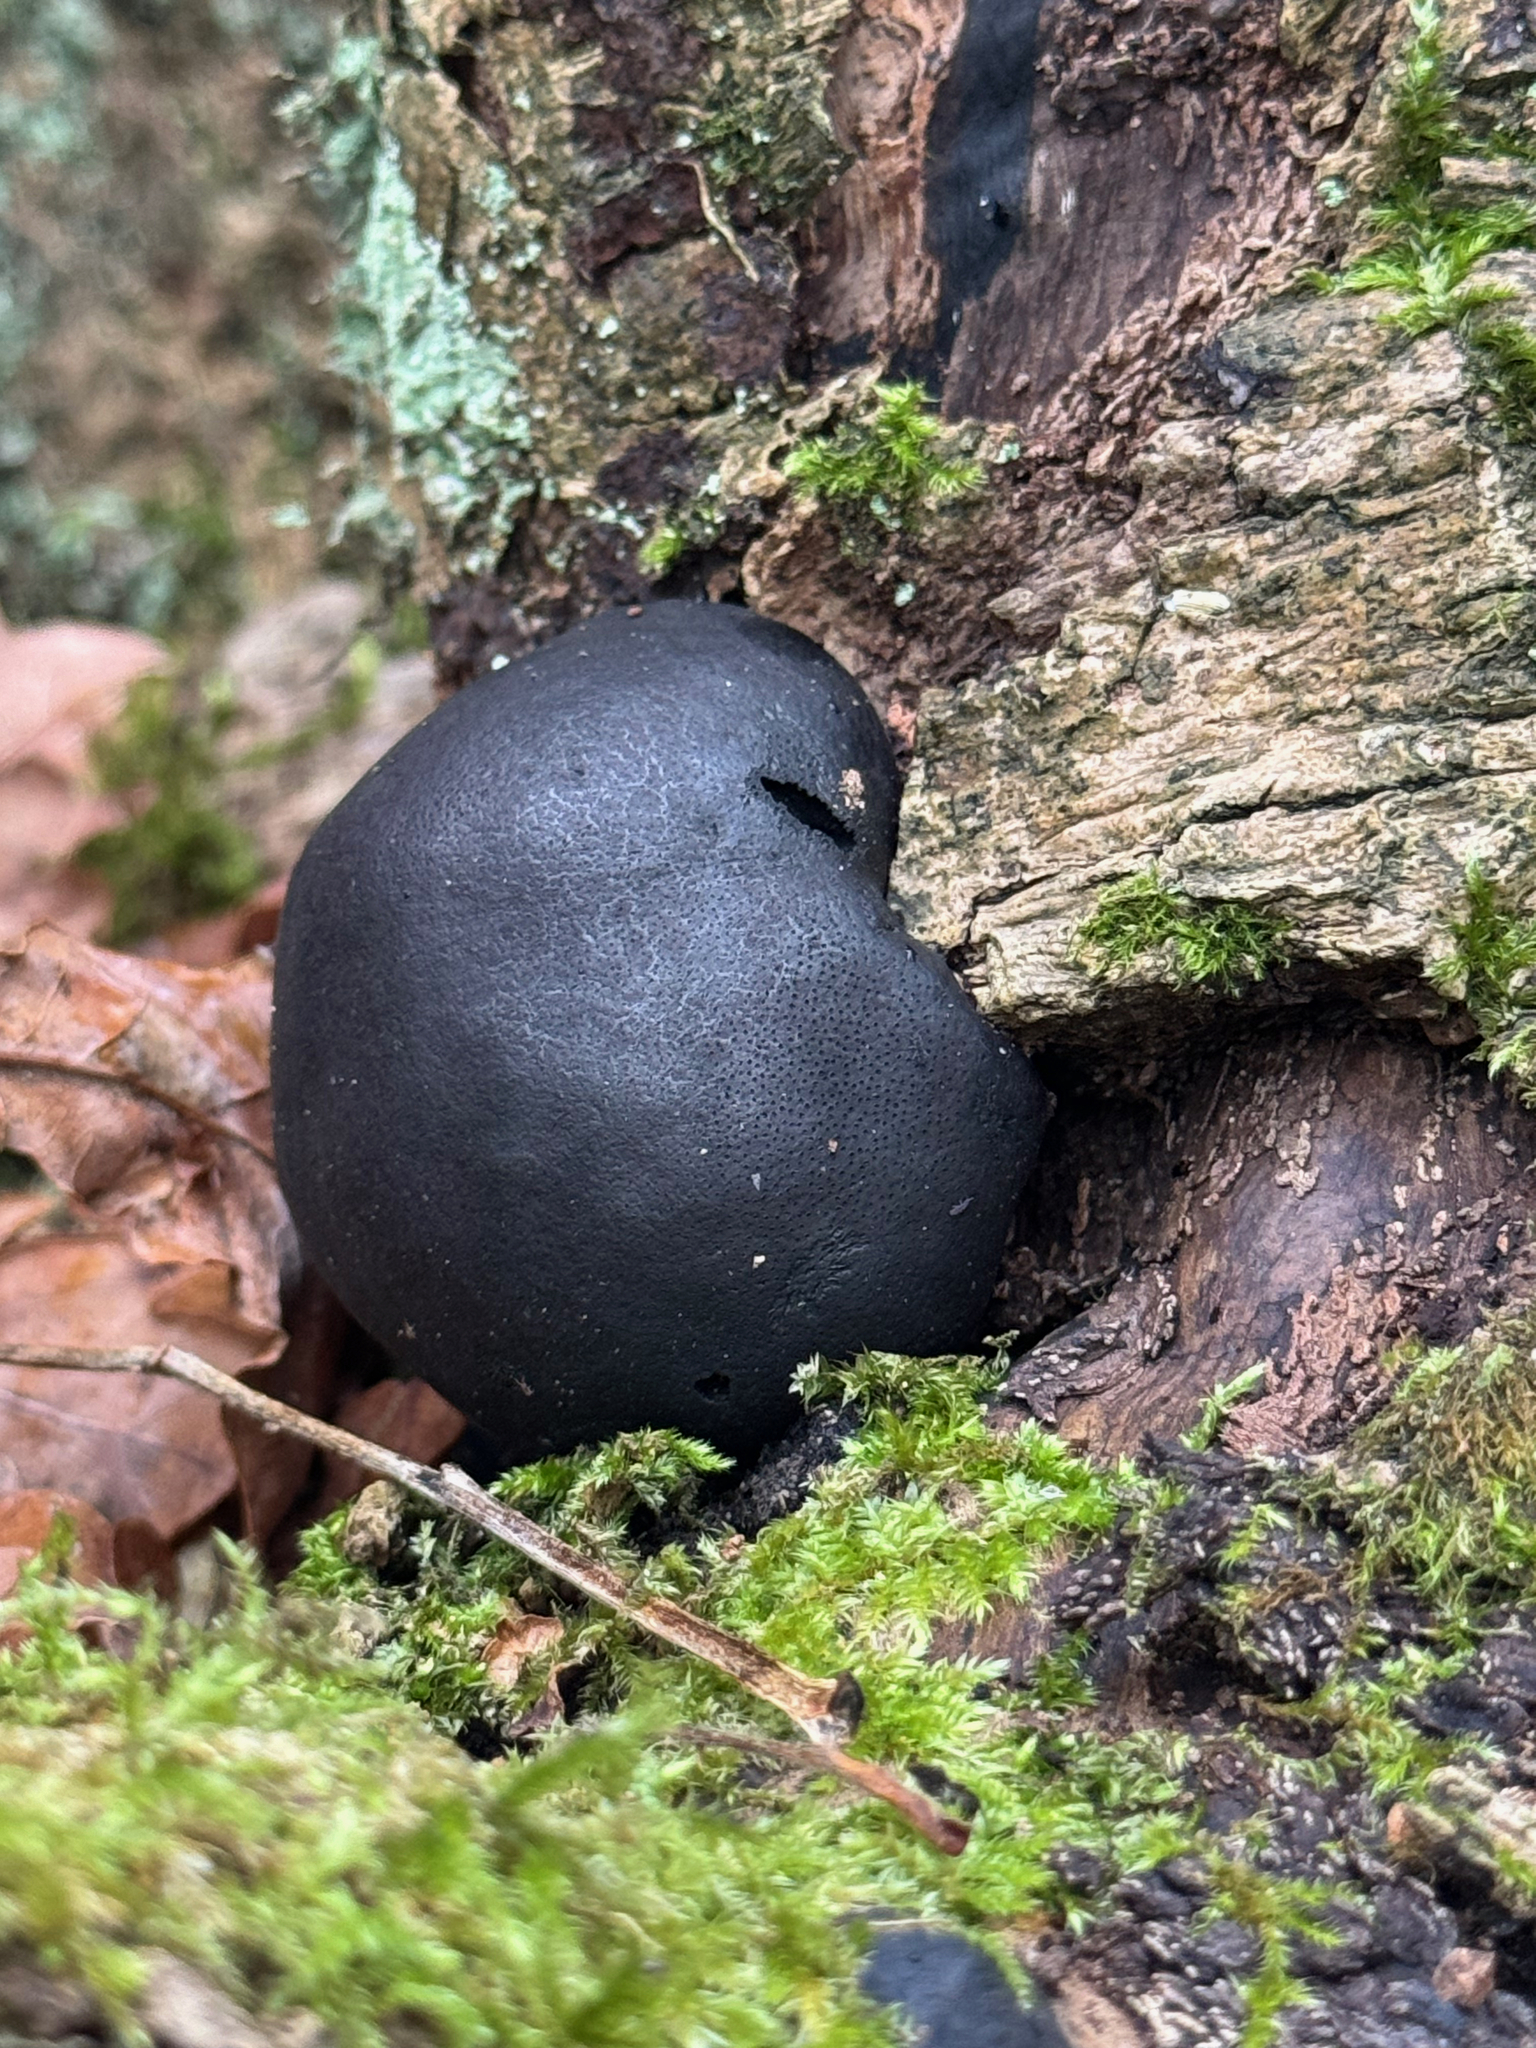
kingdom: Fungi
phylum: Ascomycota
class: Sordariomycetes
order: Xylariales
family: Hypoxylaceae
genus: Daldinia
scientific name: Daldinia concentrica
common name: Cramp balls
